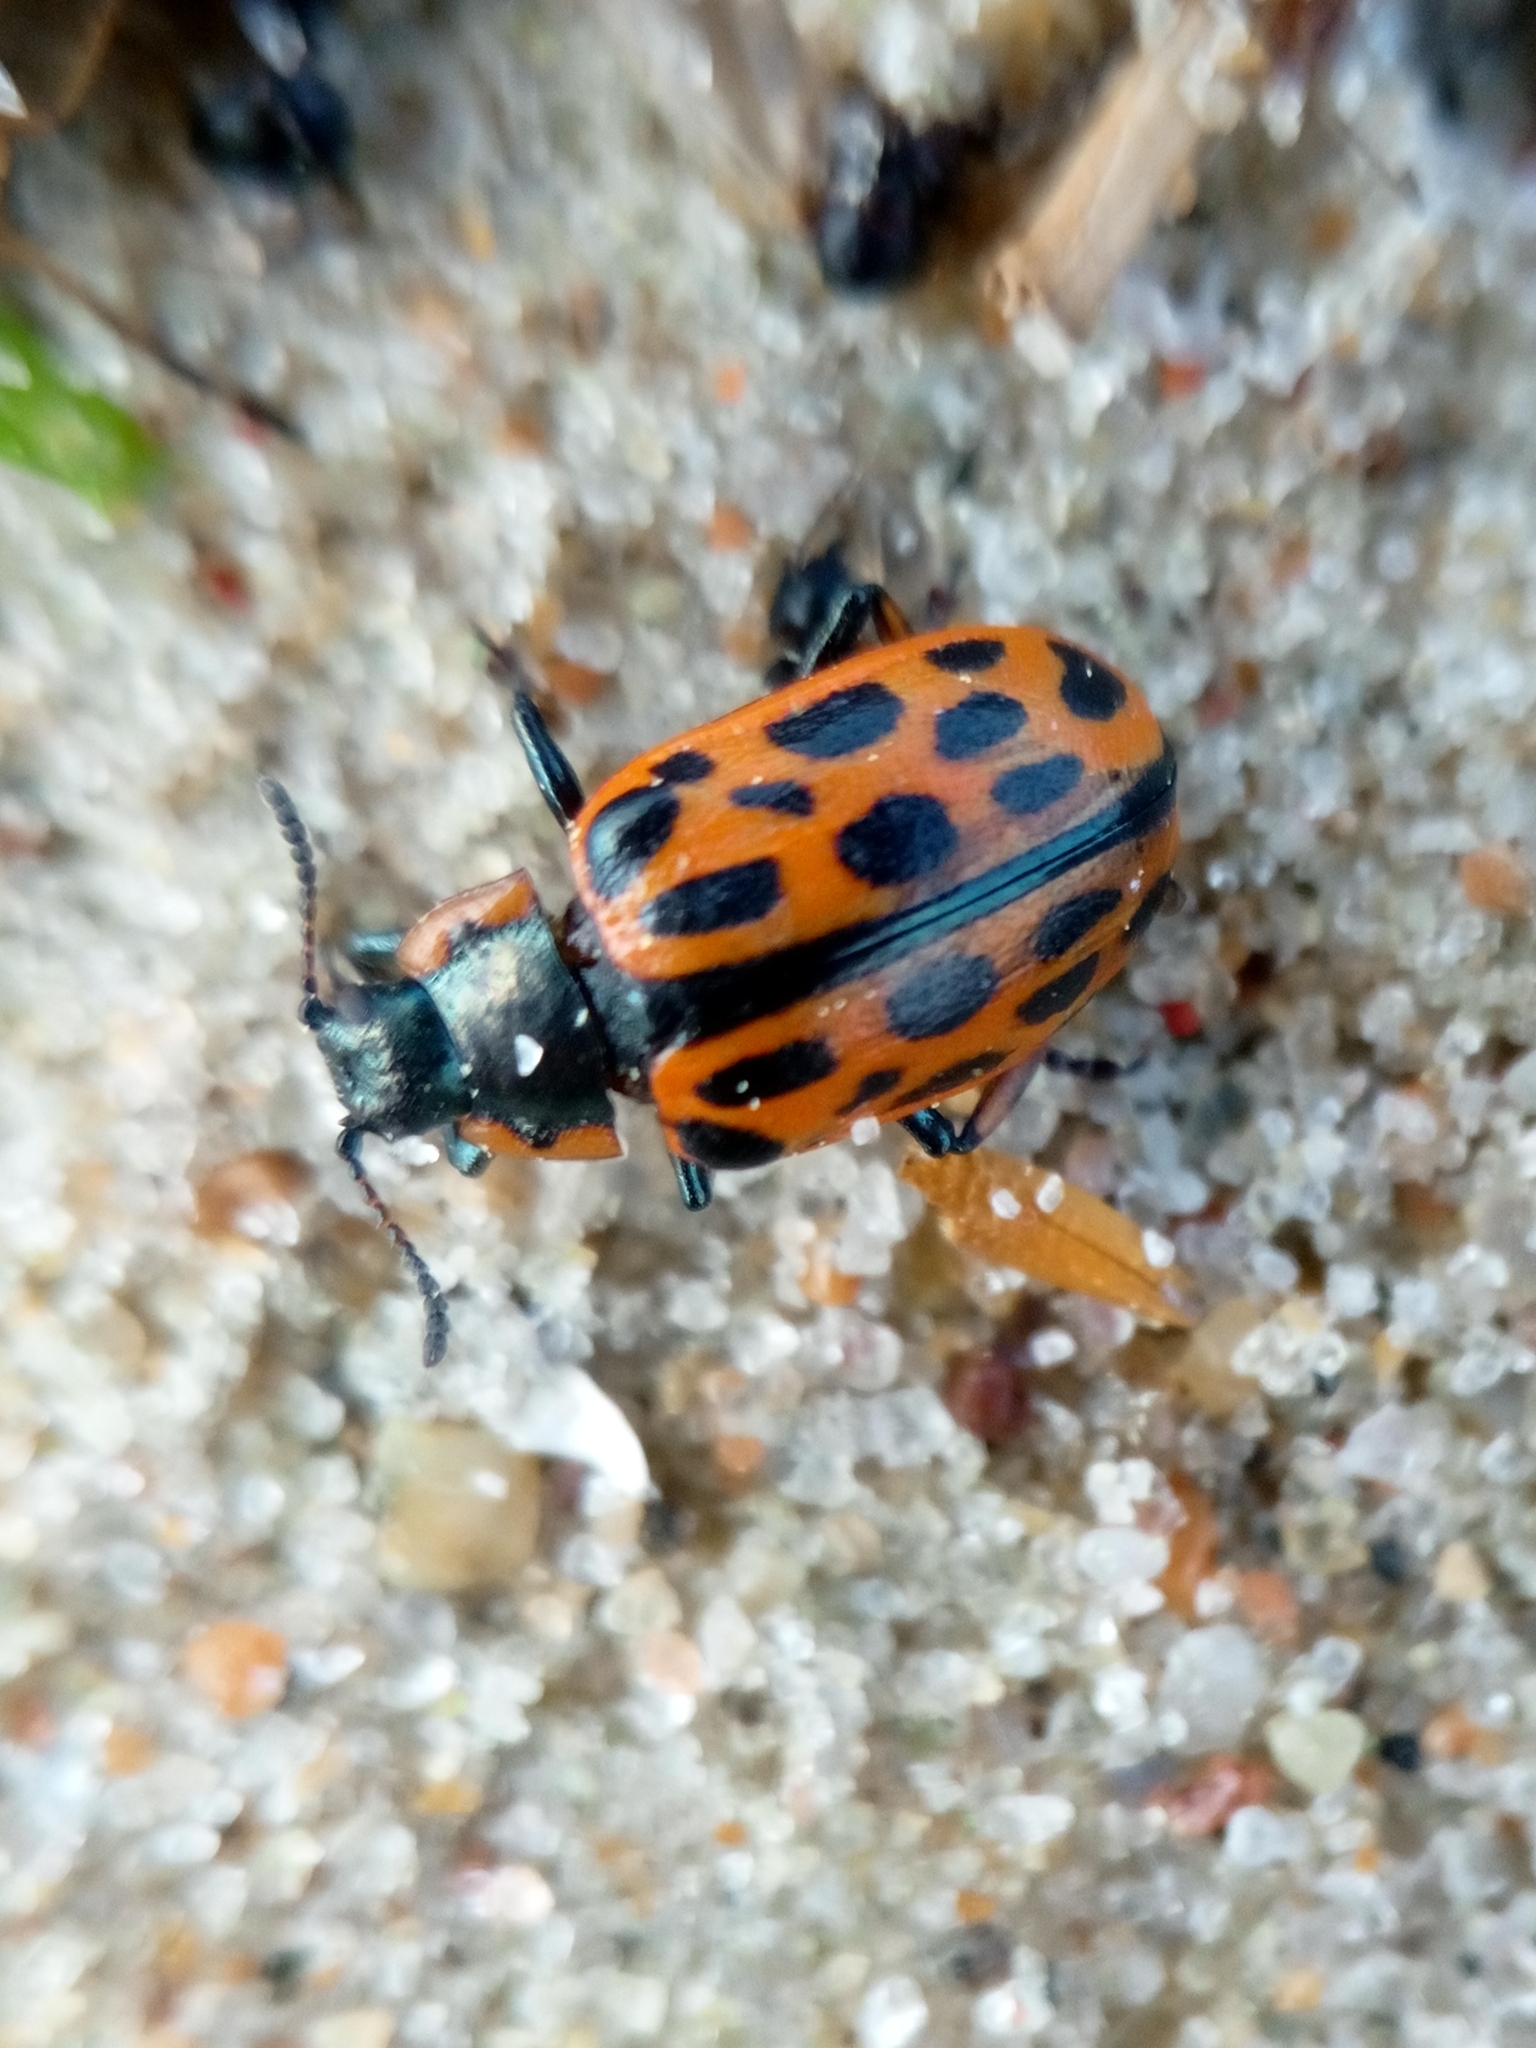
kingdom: Animalia
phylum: Arthropoda
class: Insecta
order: Coleoptera
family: Chrysomelidae
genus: Chrysomela
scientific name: Chrysomela vigintipunctata
